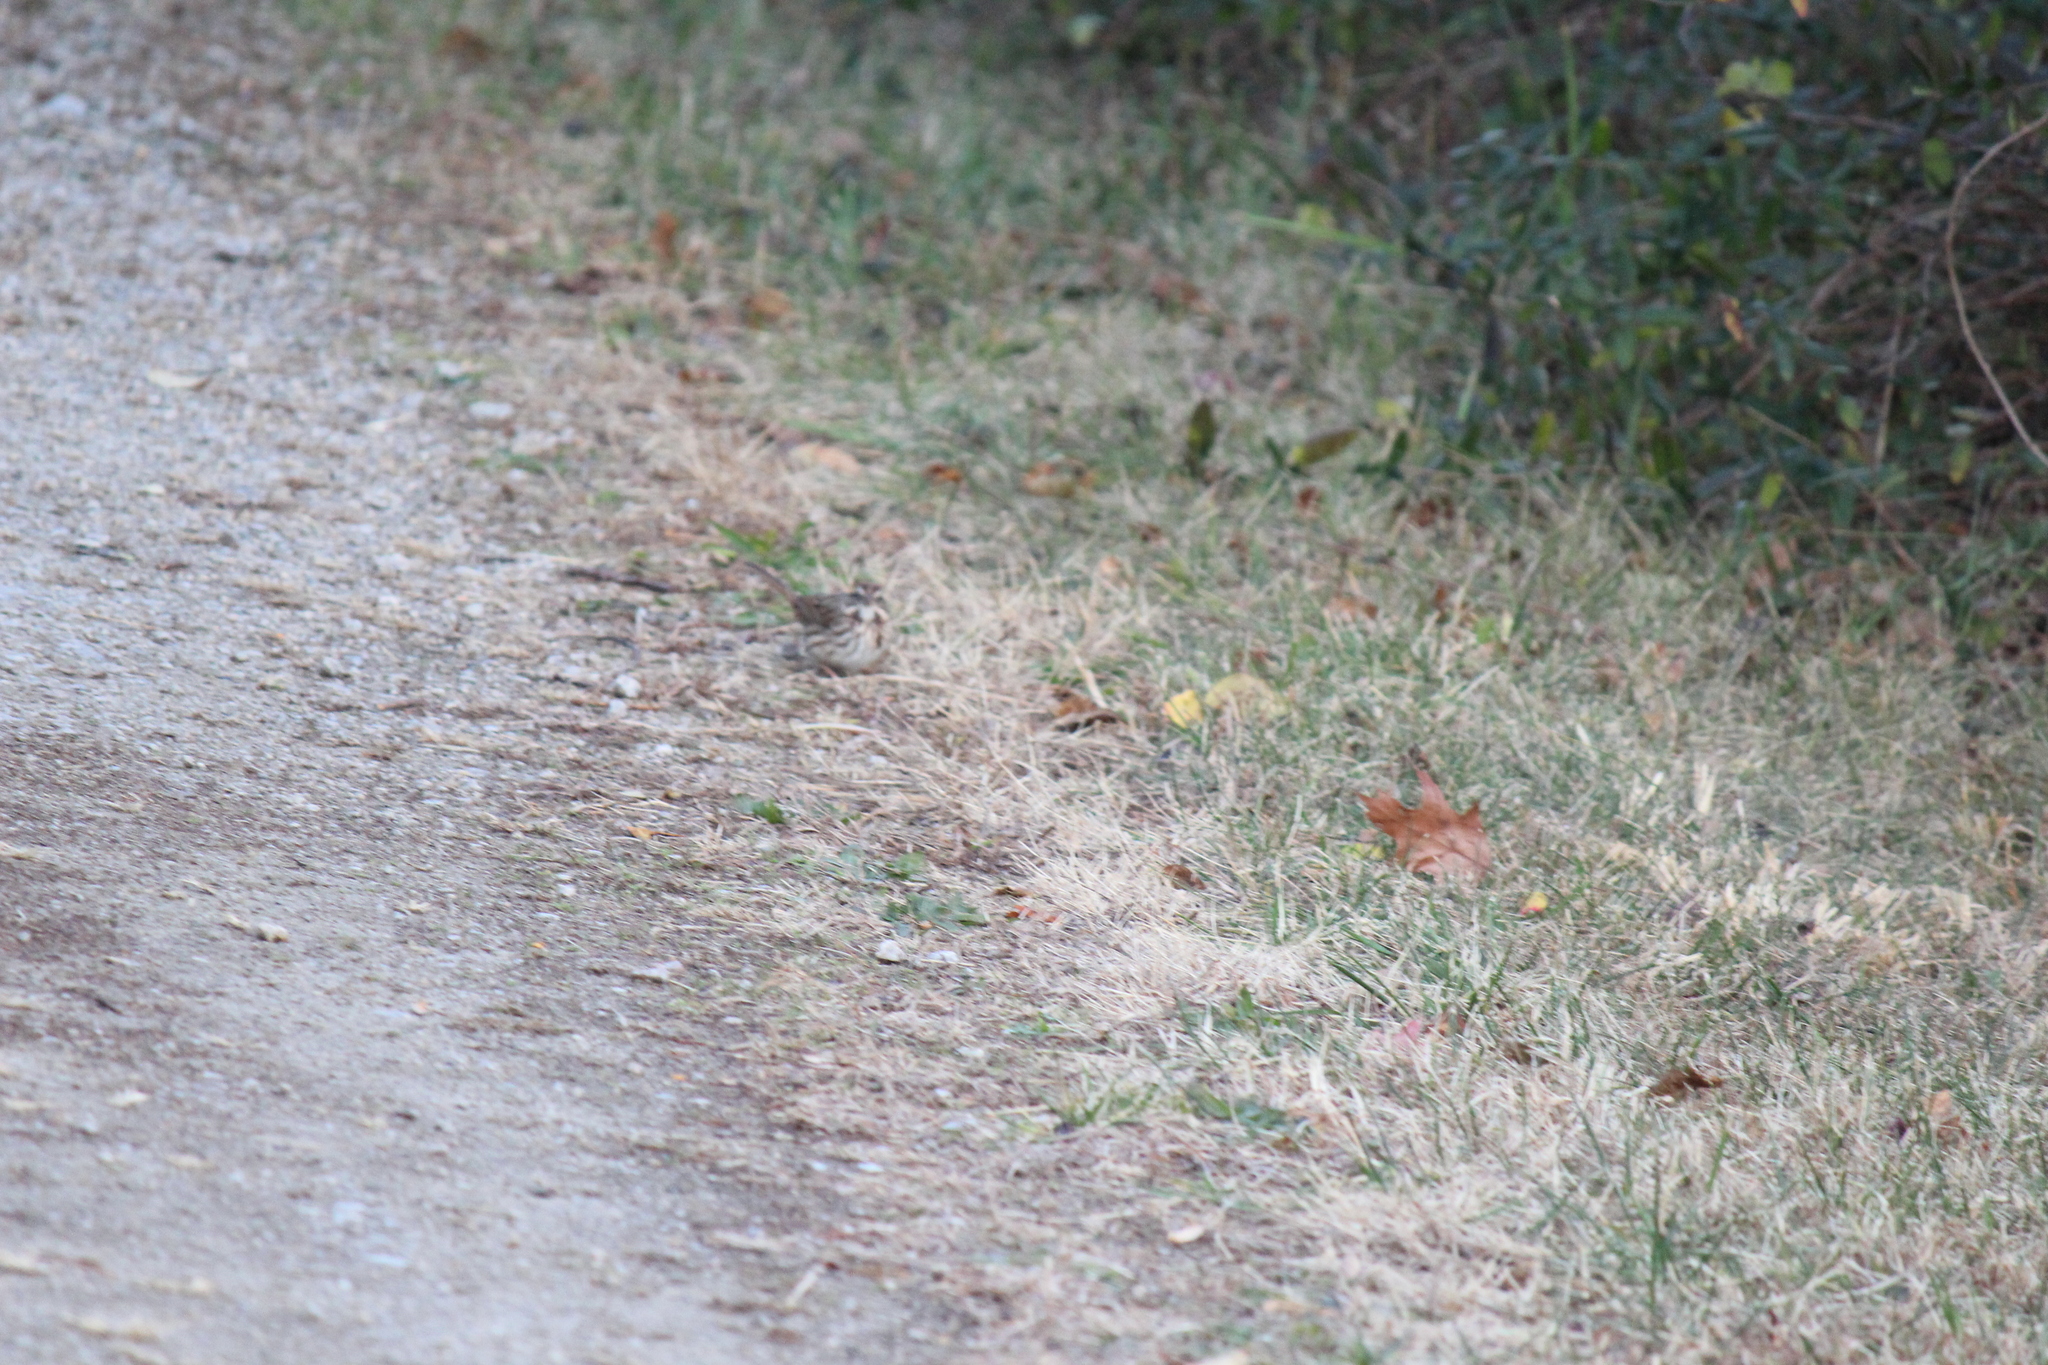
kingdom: Animalia
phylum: Chordata
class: Aves
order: Passeriformes
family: Passerellidae
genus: Melospiza
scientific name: Melospiza melodia
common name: Song sparrow
